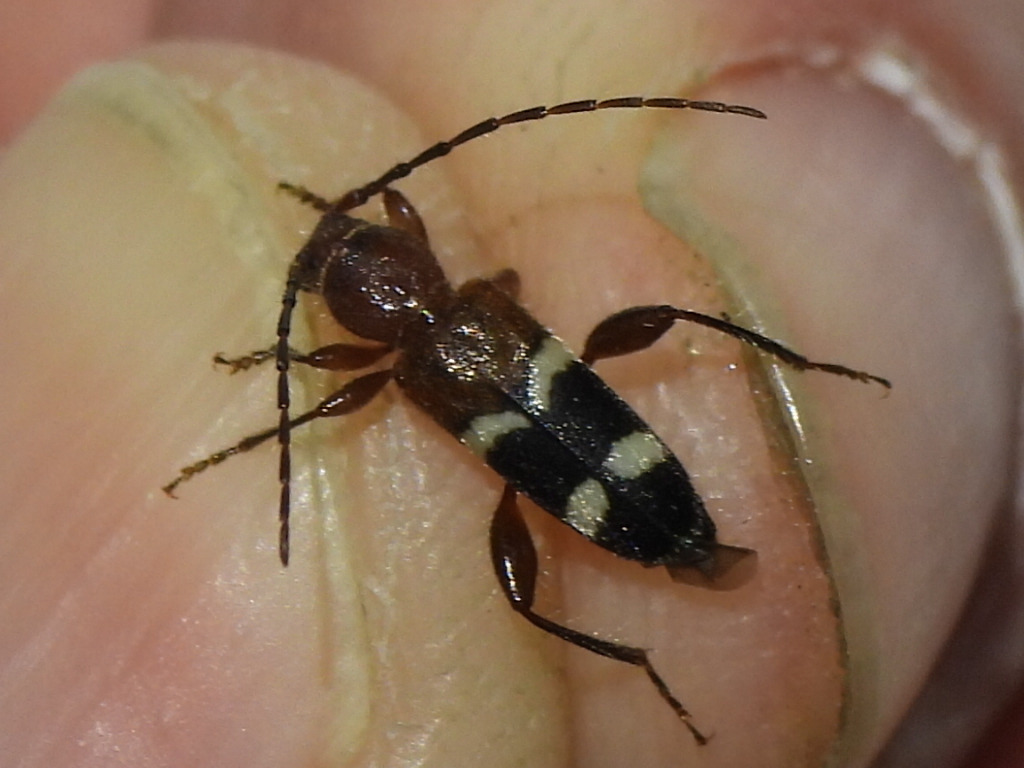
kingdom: Animalia
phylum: Arthropoda
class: Insecta
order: Coleoptera
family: Cerambycidae
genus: Phymatodes
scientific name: Phymatodes varius
